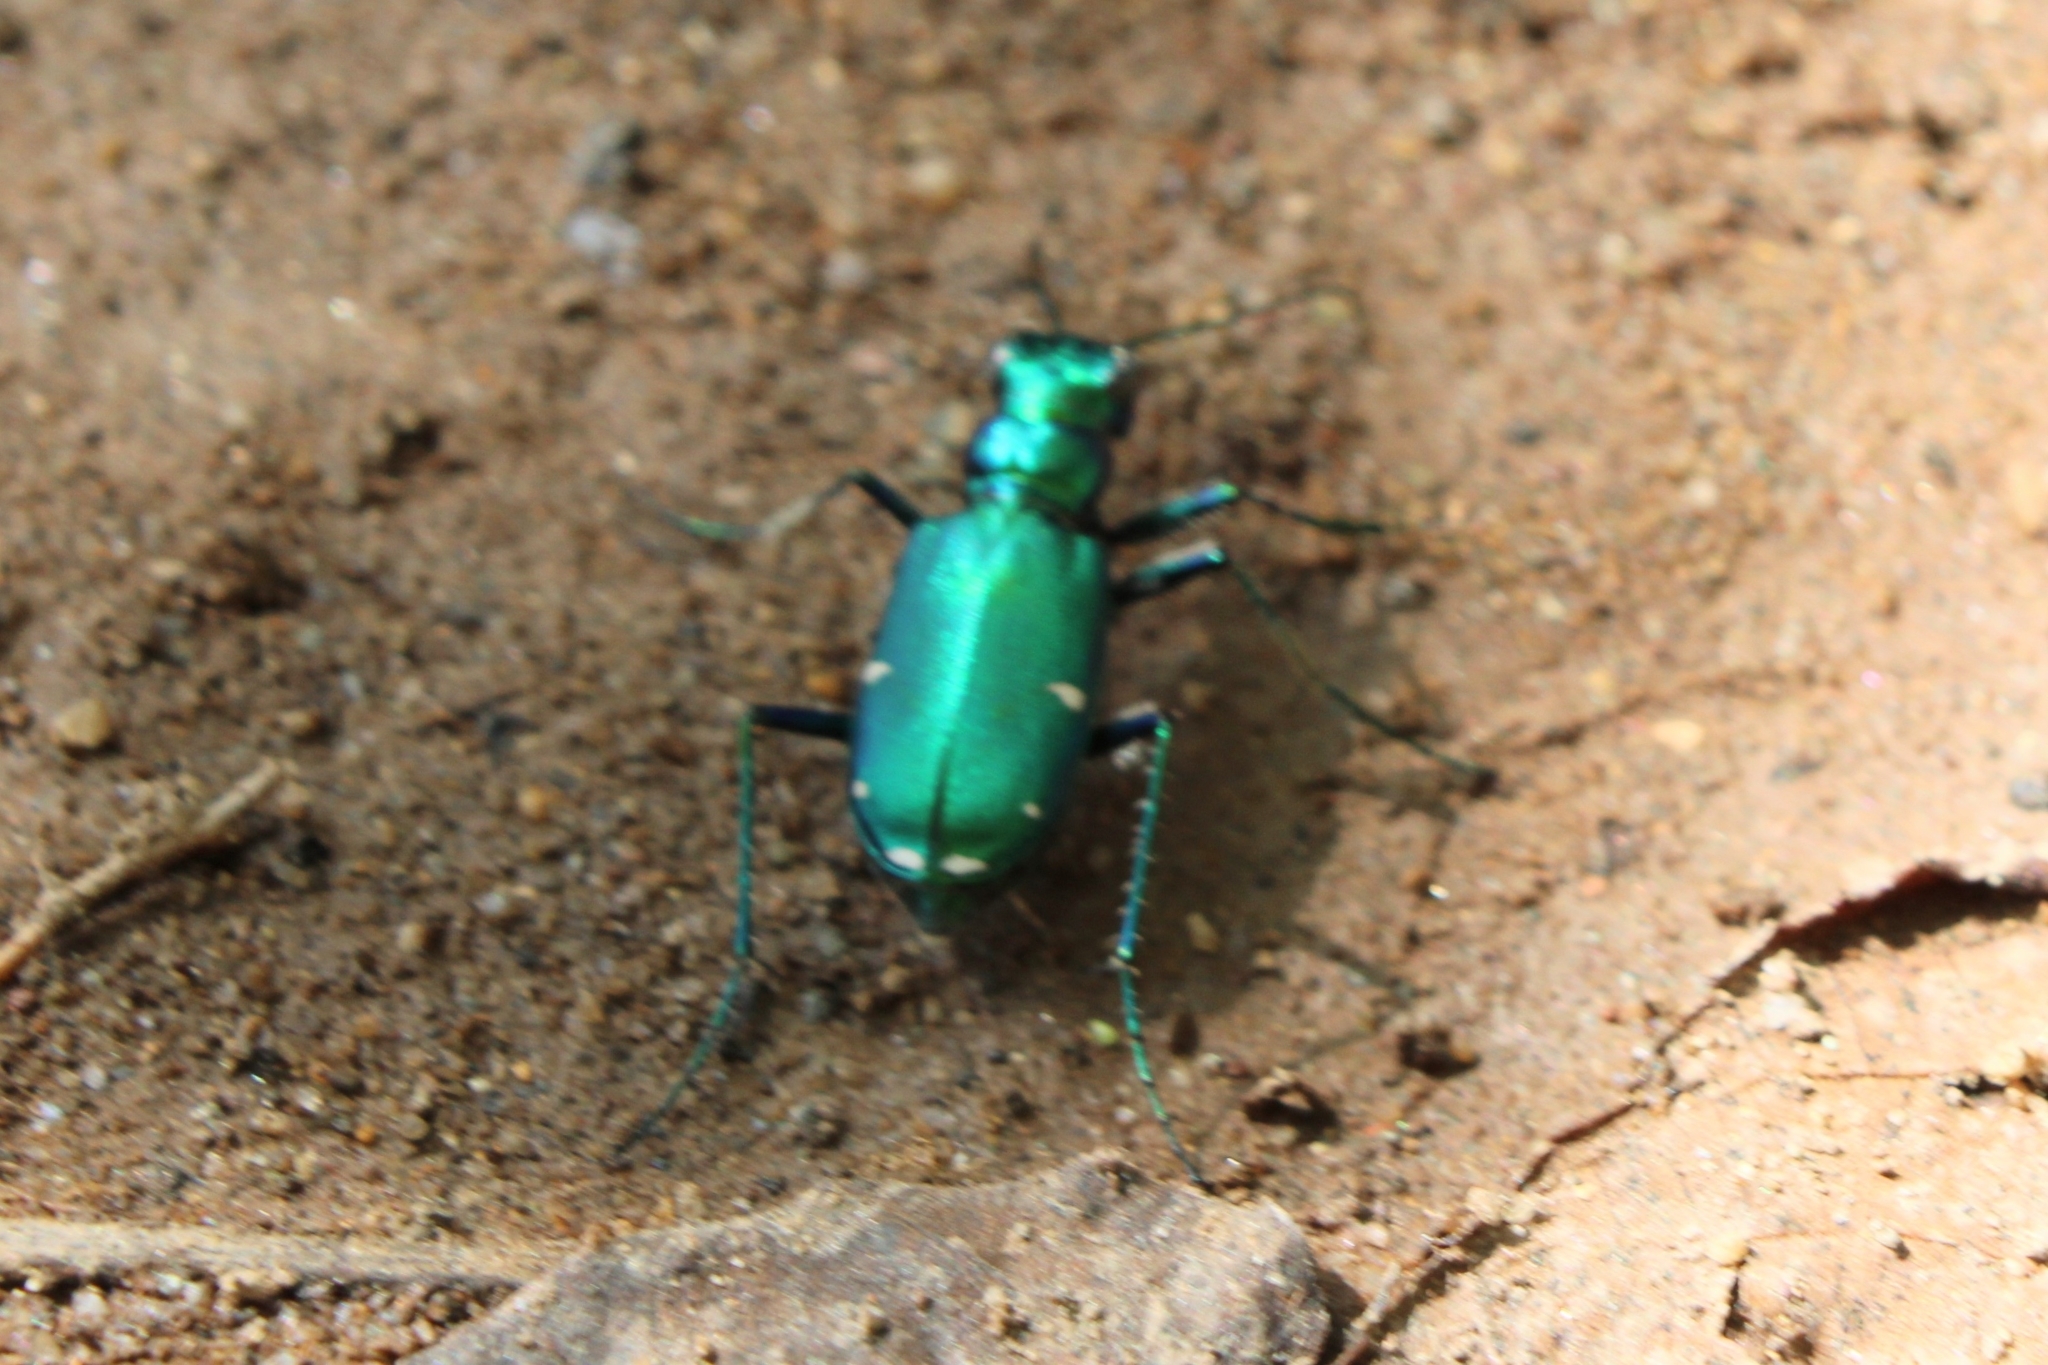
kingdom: Animalia
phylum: Arthropoda
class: Insecta
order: Coleoptera
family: Carabidae
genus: Cicindela
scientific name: Cicindela sexguttata
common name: Six-spotted tiger beetle
